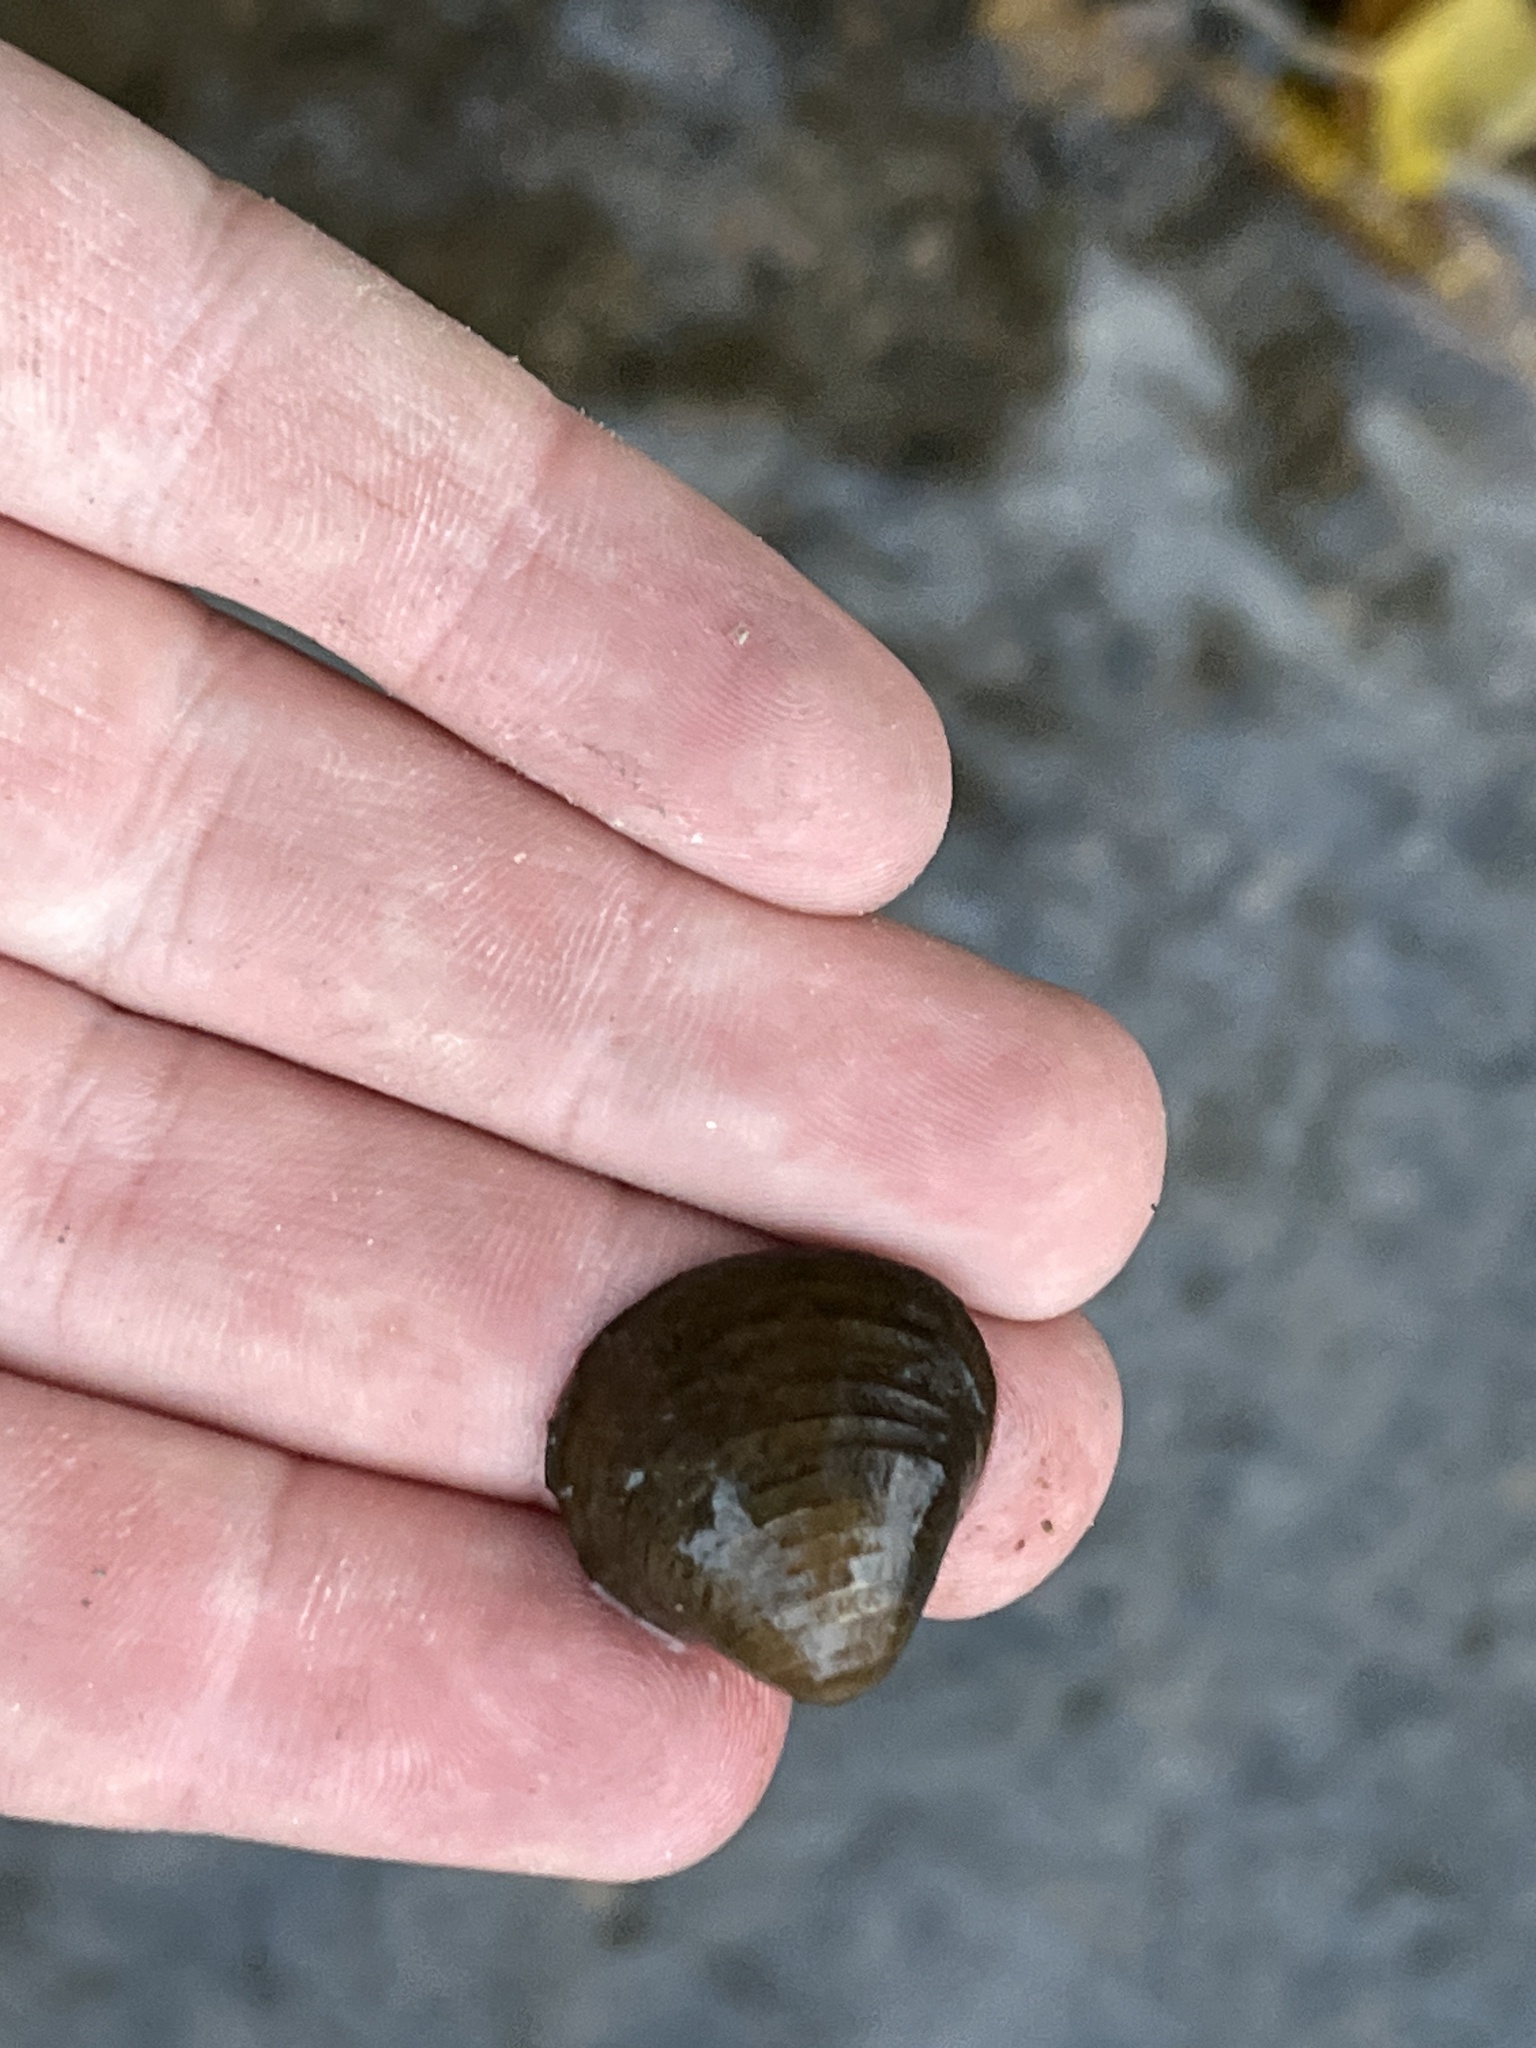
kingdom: Animalia
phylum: Mollusca
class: Bivalvia
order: Venerida
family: Cyrenidae
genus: Corbicula
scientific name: Corbicula fluminea
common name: Asian clam
